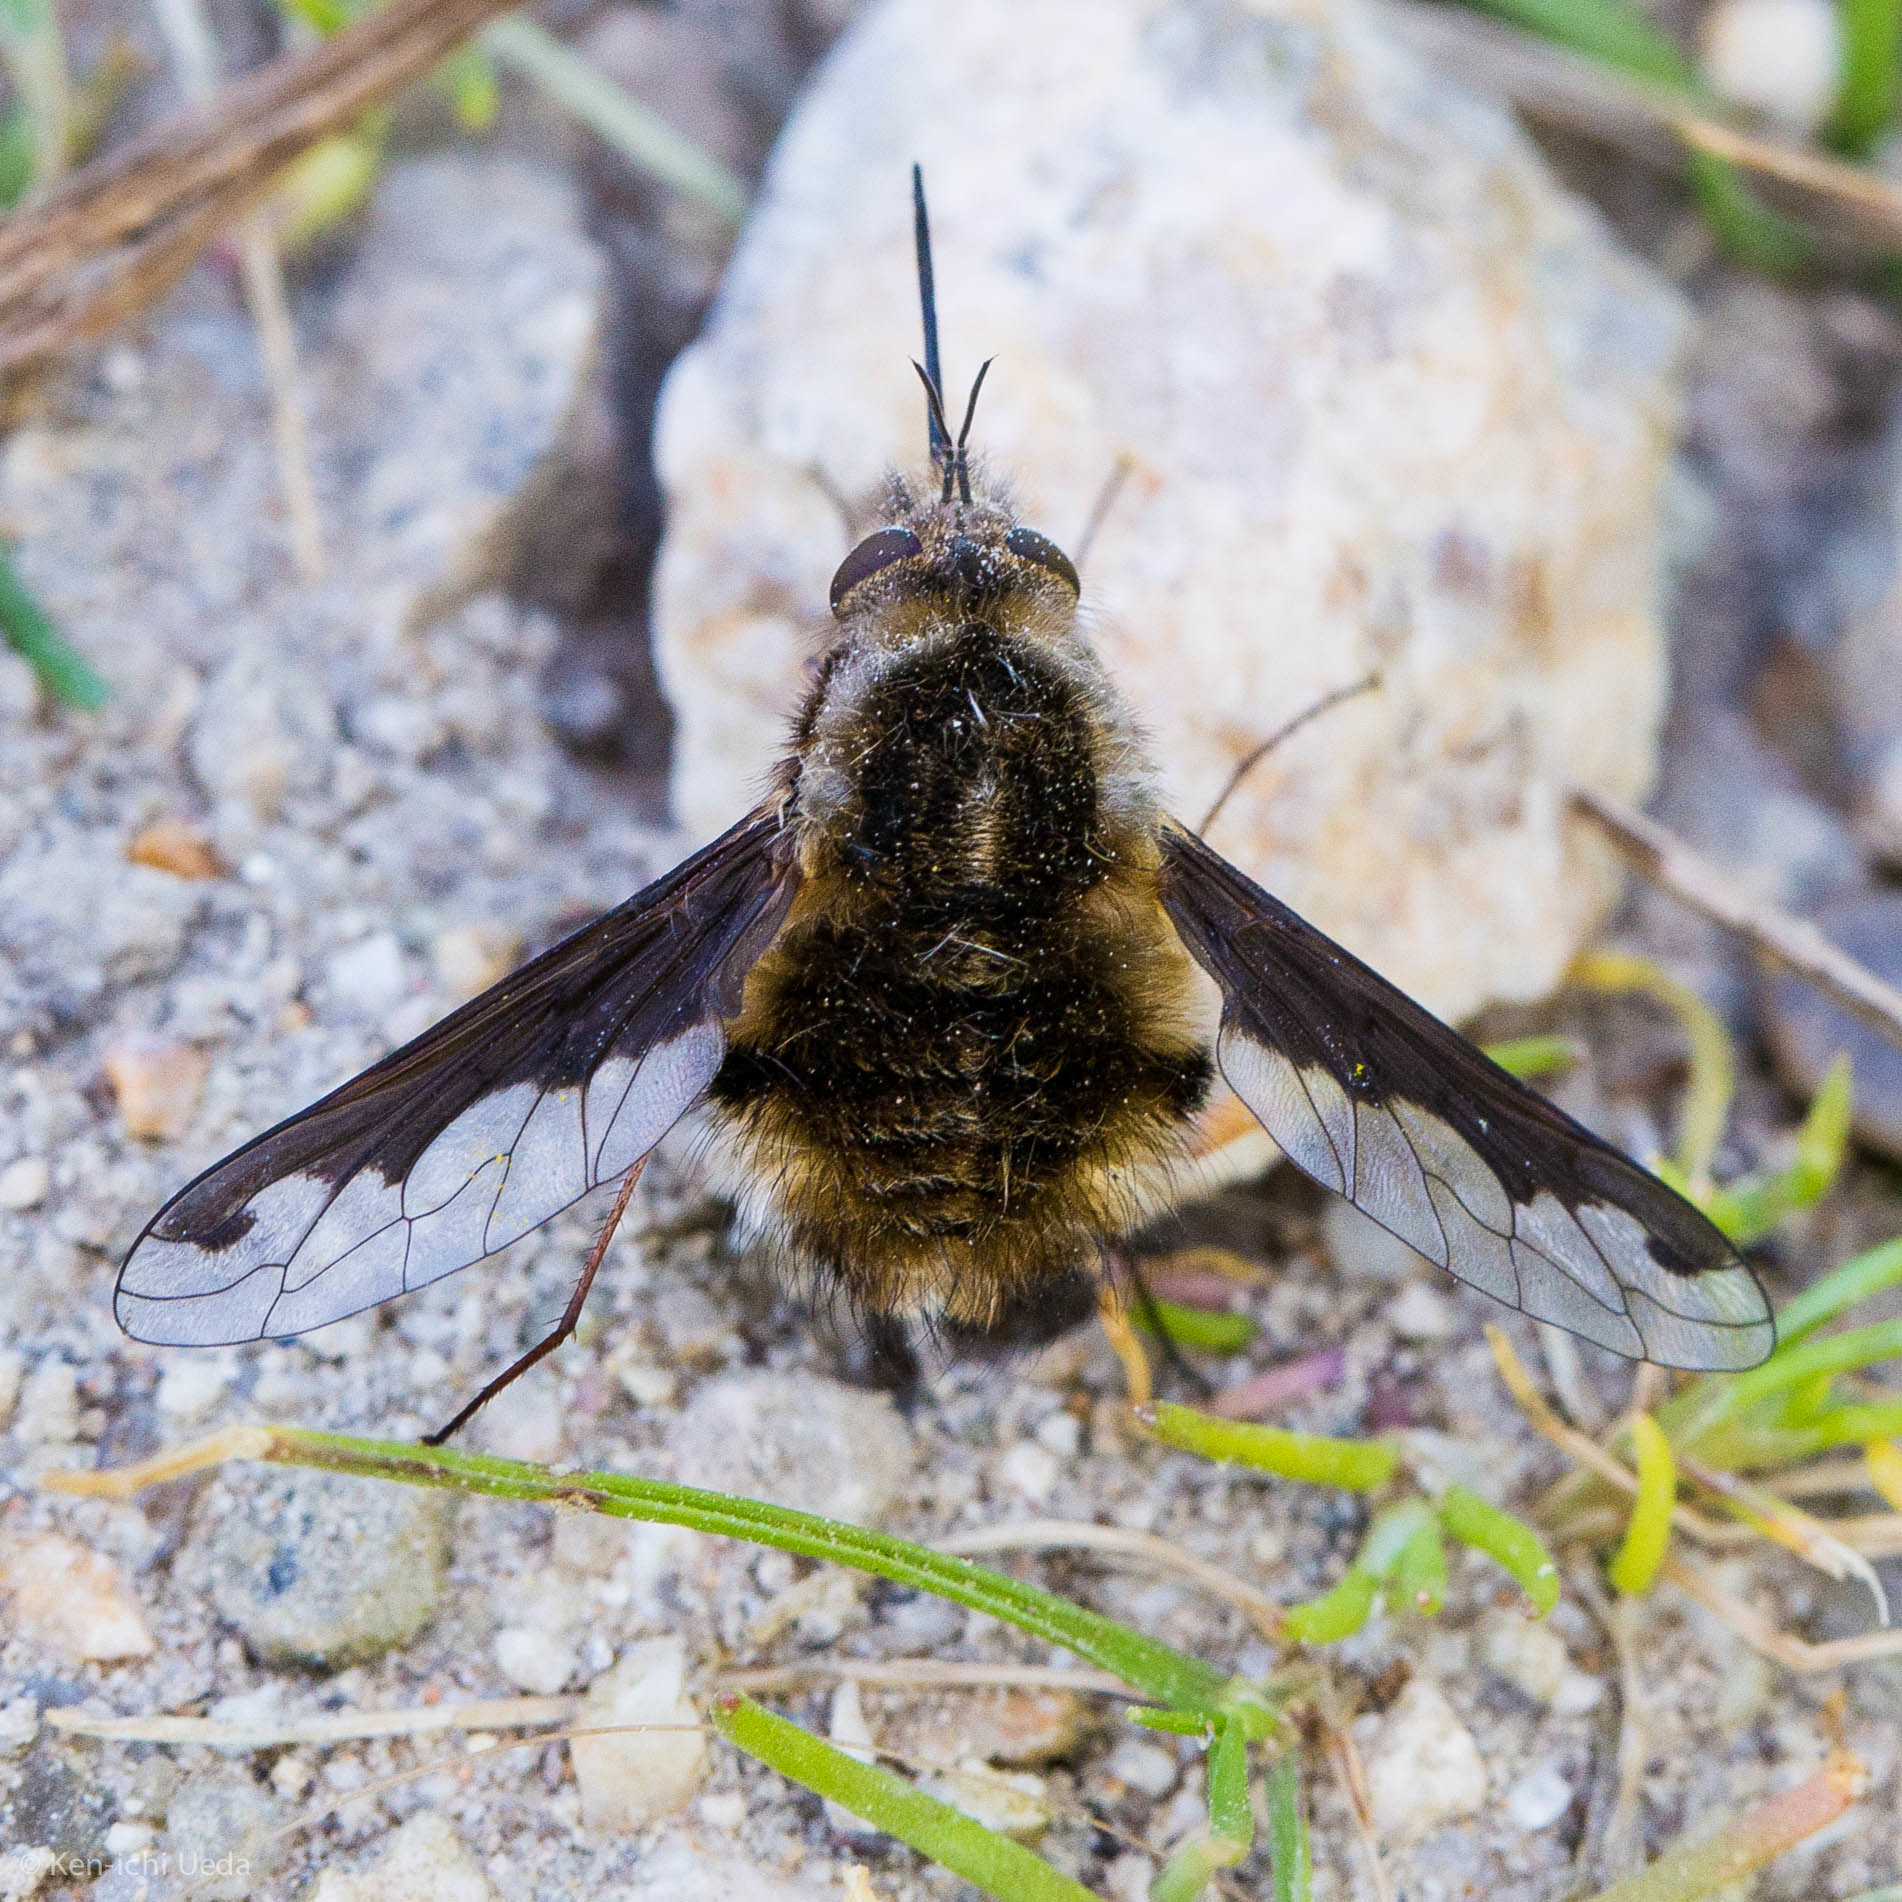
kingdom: Animalia
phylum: Arthropoda
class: Insecta
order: Diptera
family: Bombyliidae
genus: Bombylius
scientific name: Bombylius major
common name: Bee fly
